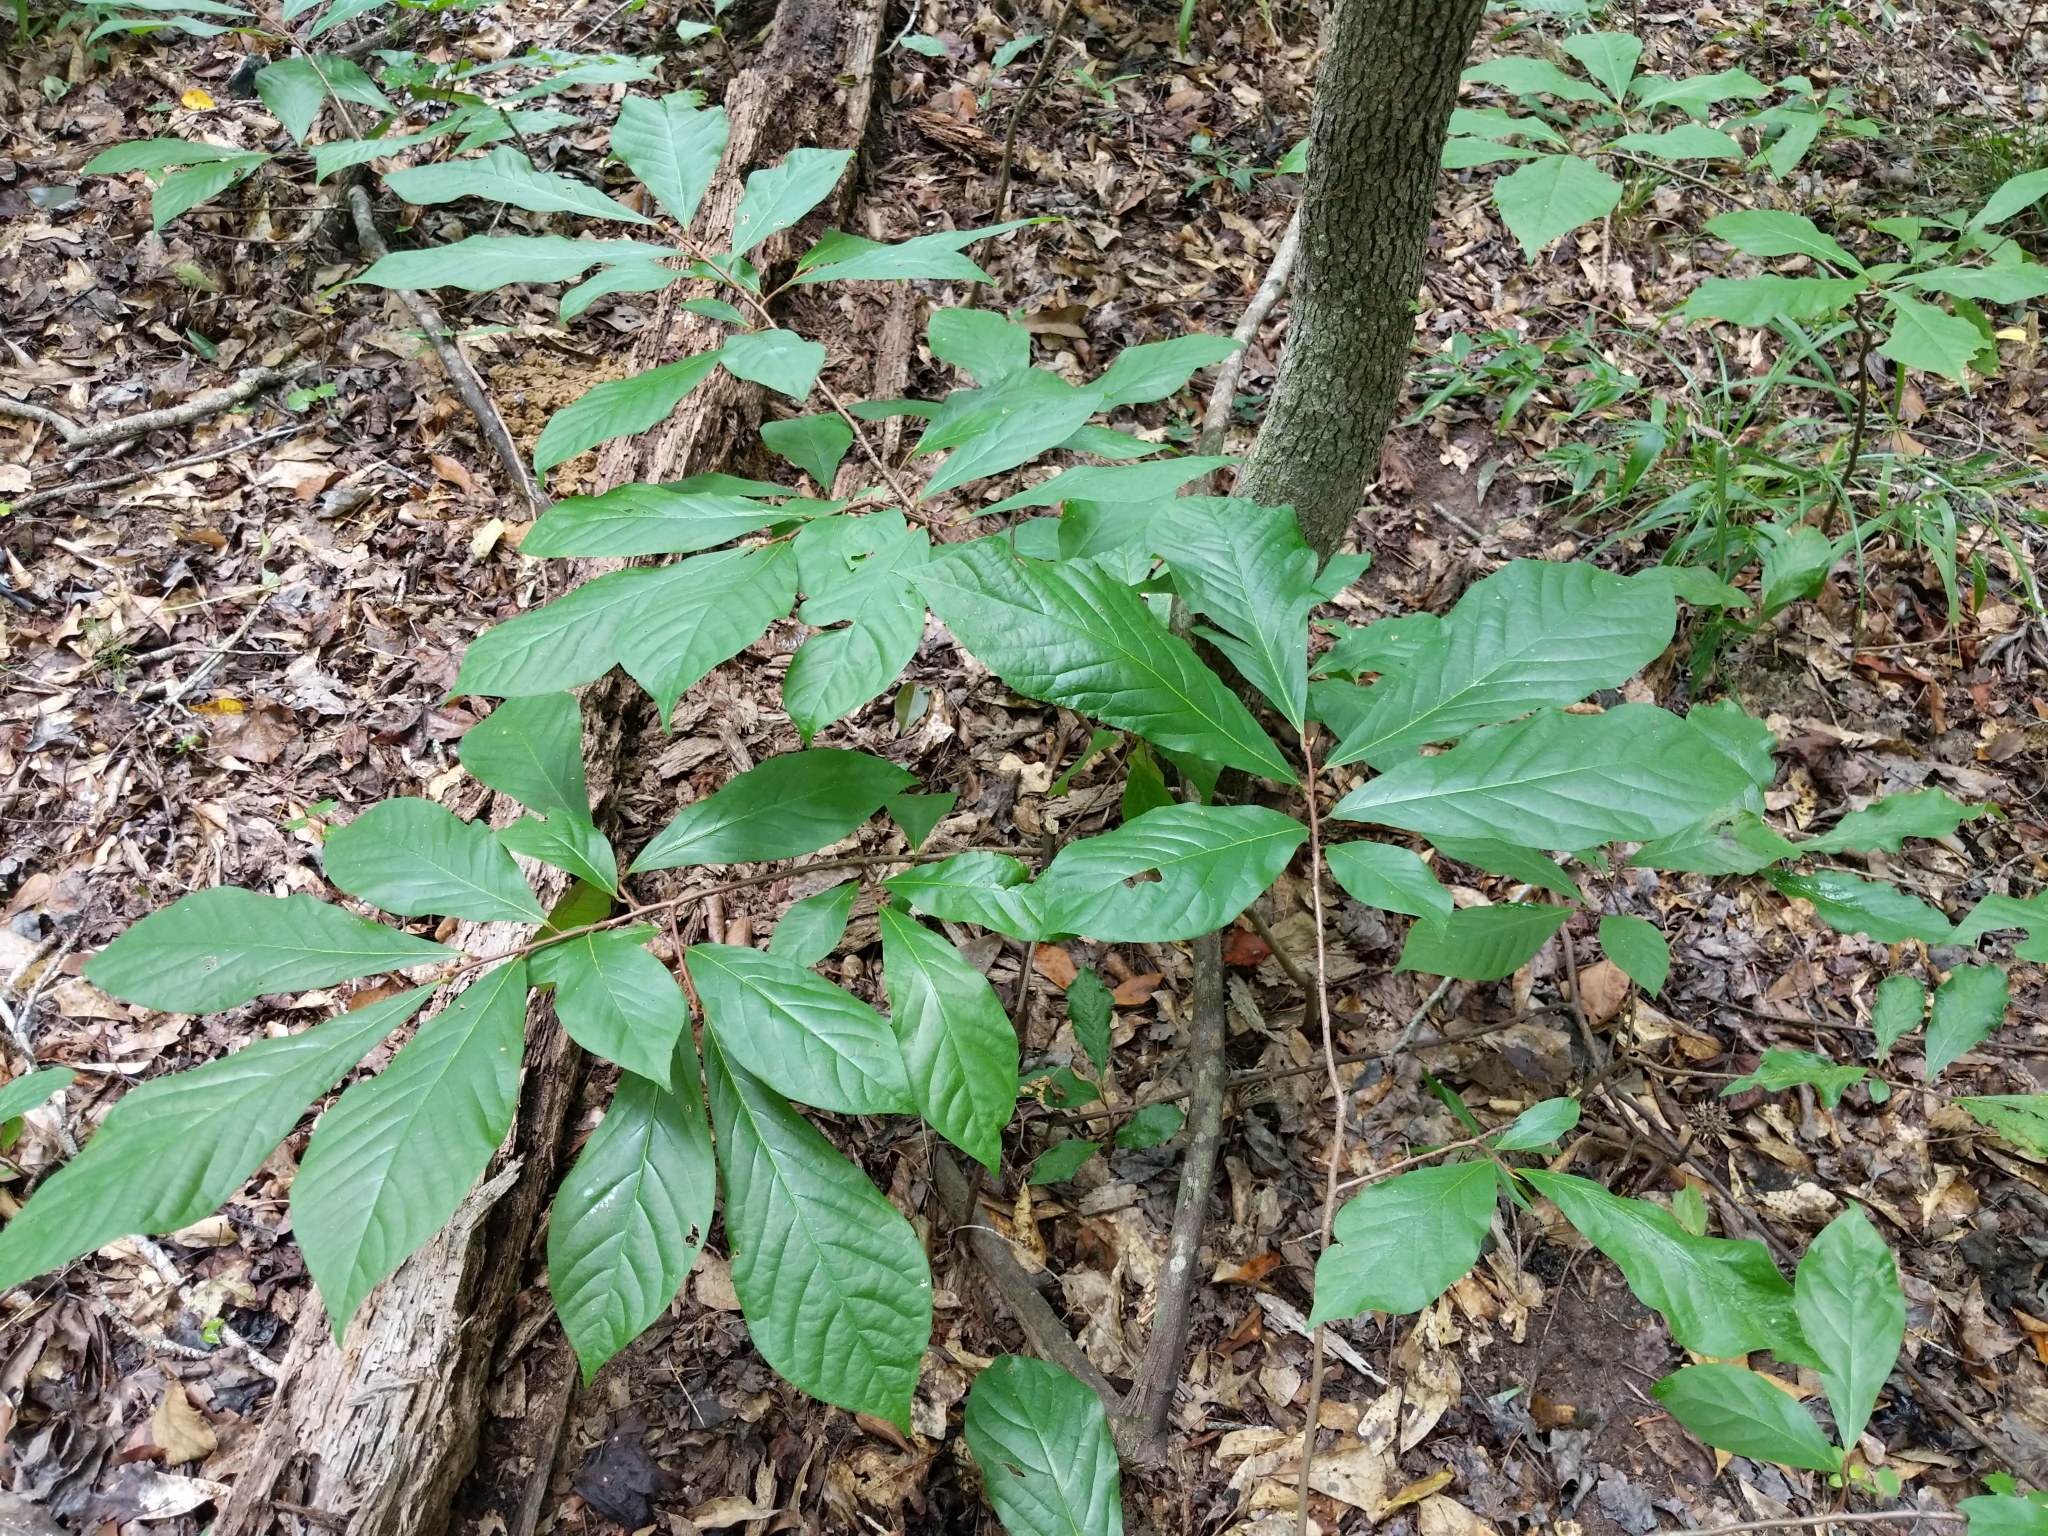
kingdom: Plantae
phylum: Tracheophyta
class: Magnoliopsida
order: Magnoliales
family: Annonaceae
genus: Asimina
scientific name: Asimina triloba
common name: Dog-banana
